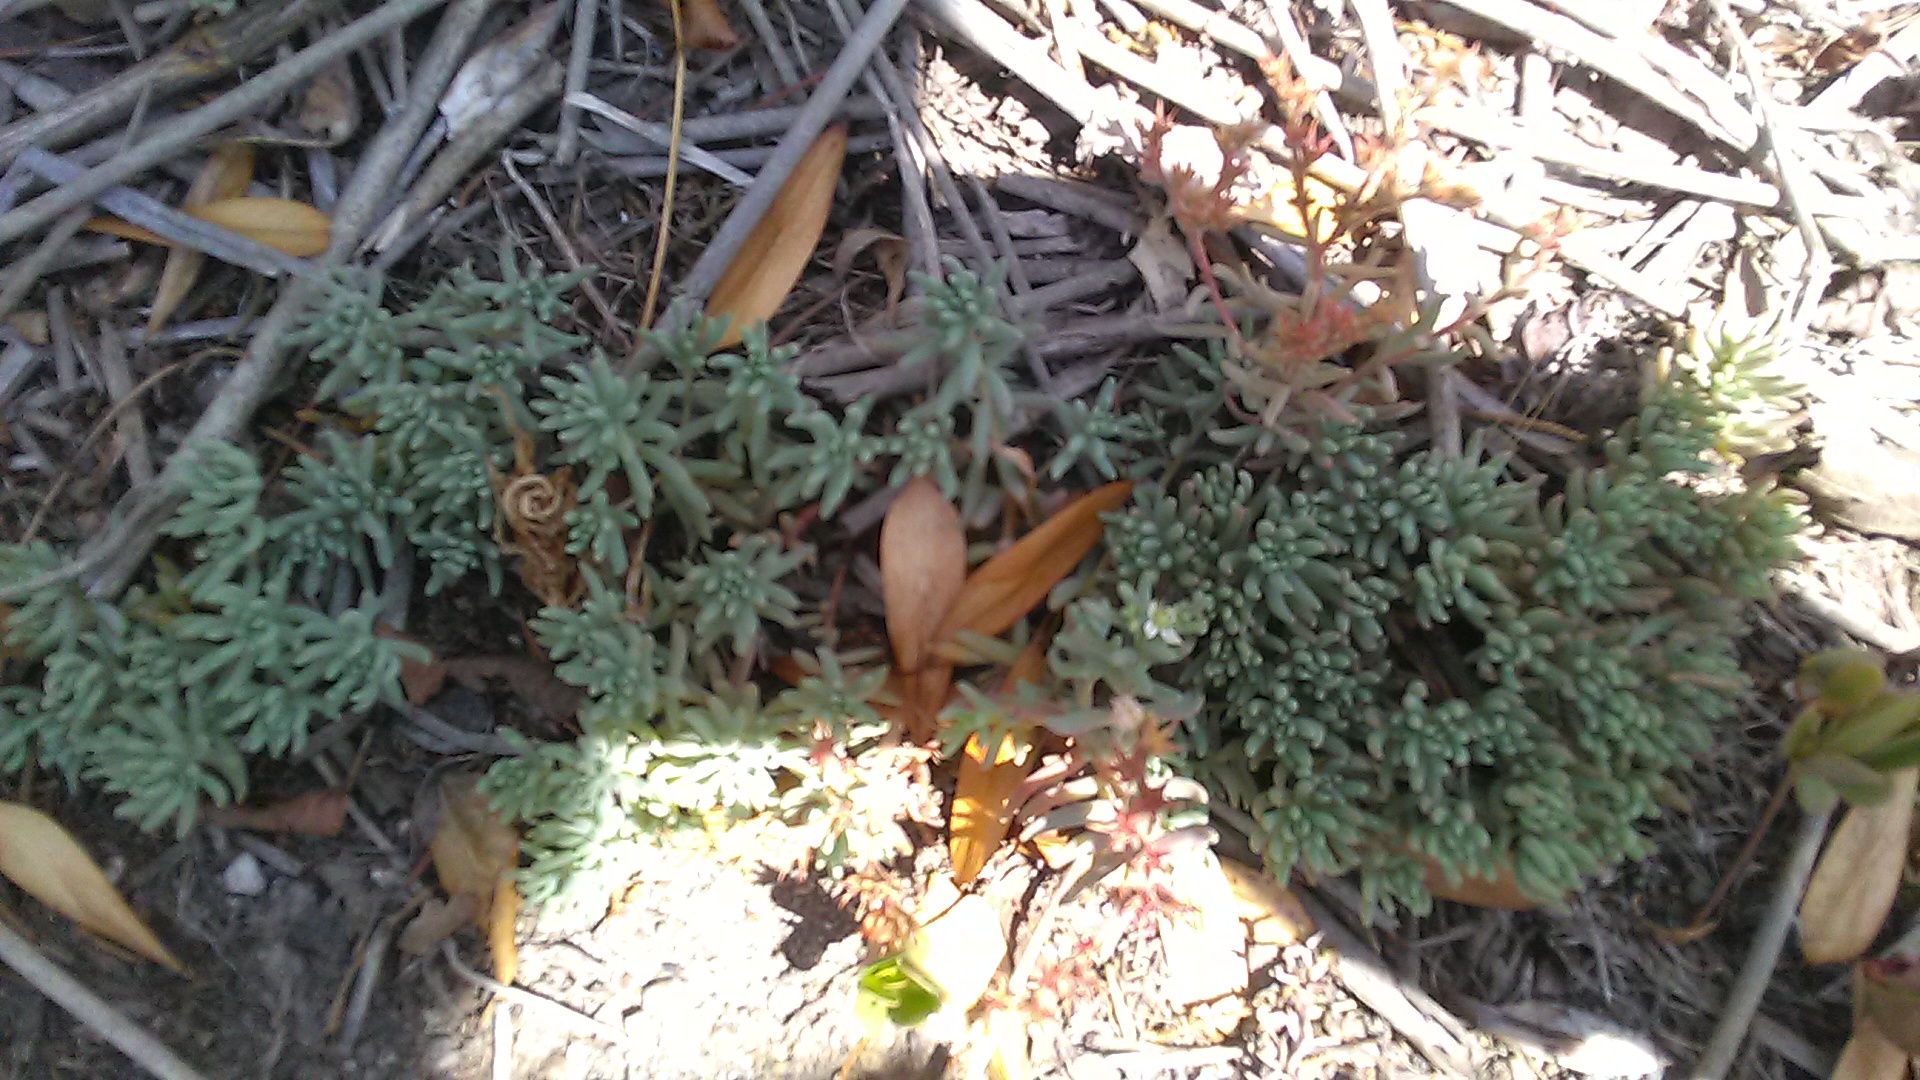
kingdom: Plantae
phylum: Tracheophyta
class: Magnoliopsida
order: Saxifragales
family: Crassulaceae
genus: Sedum
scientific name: Sedum pallidum
